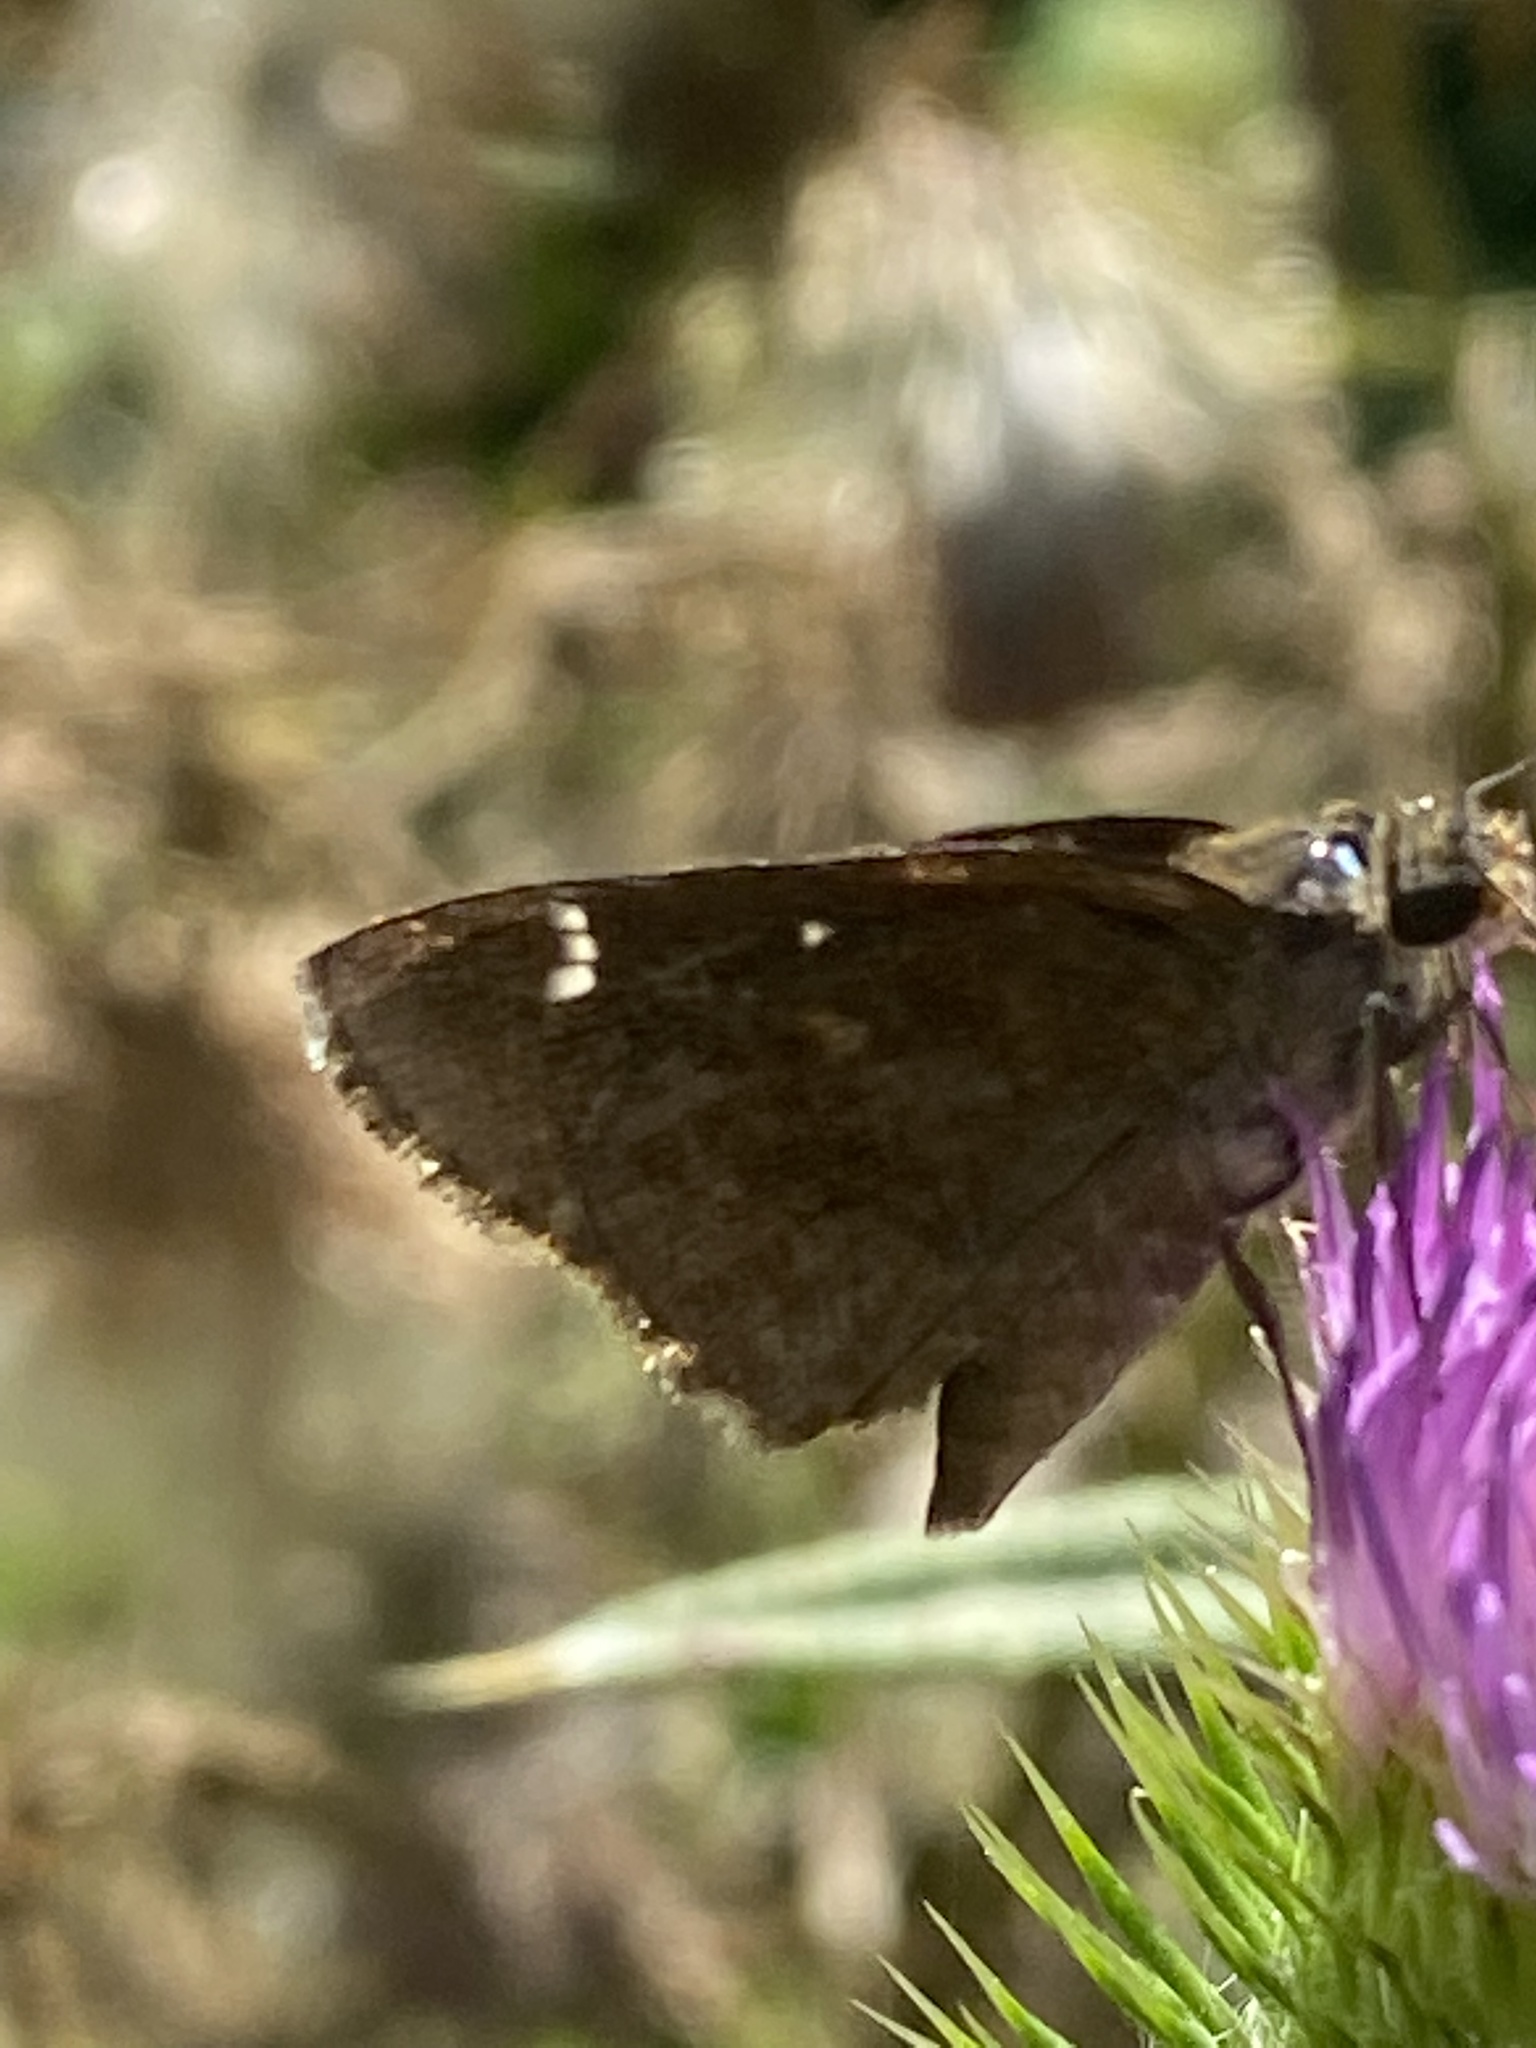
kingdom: Animalia
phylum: Arthropoda
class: Insecta
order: Lepidoptera
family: Hesperiidae
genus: Lerema
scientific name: Lerema accius
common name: Clouded skipper
